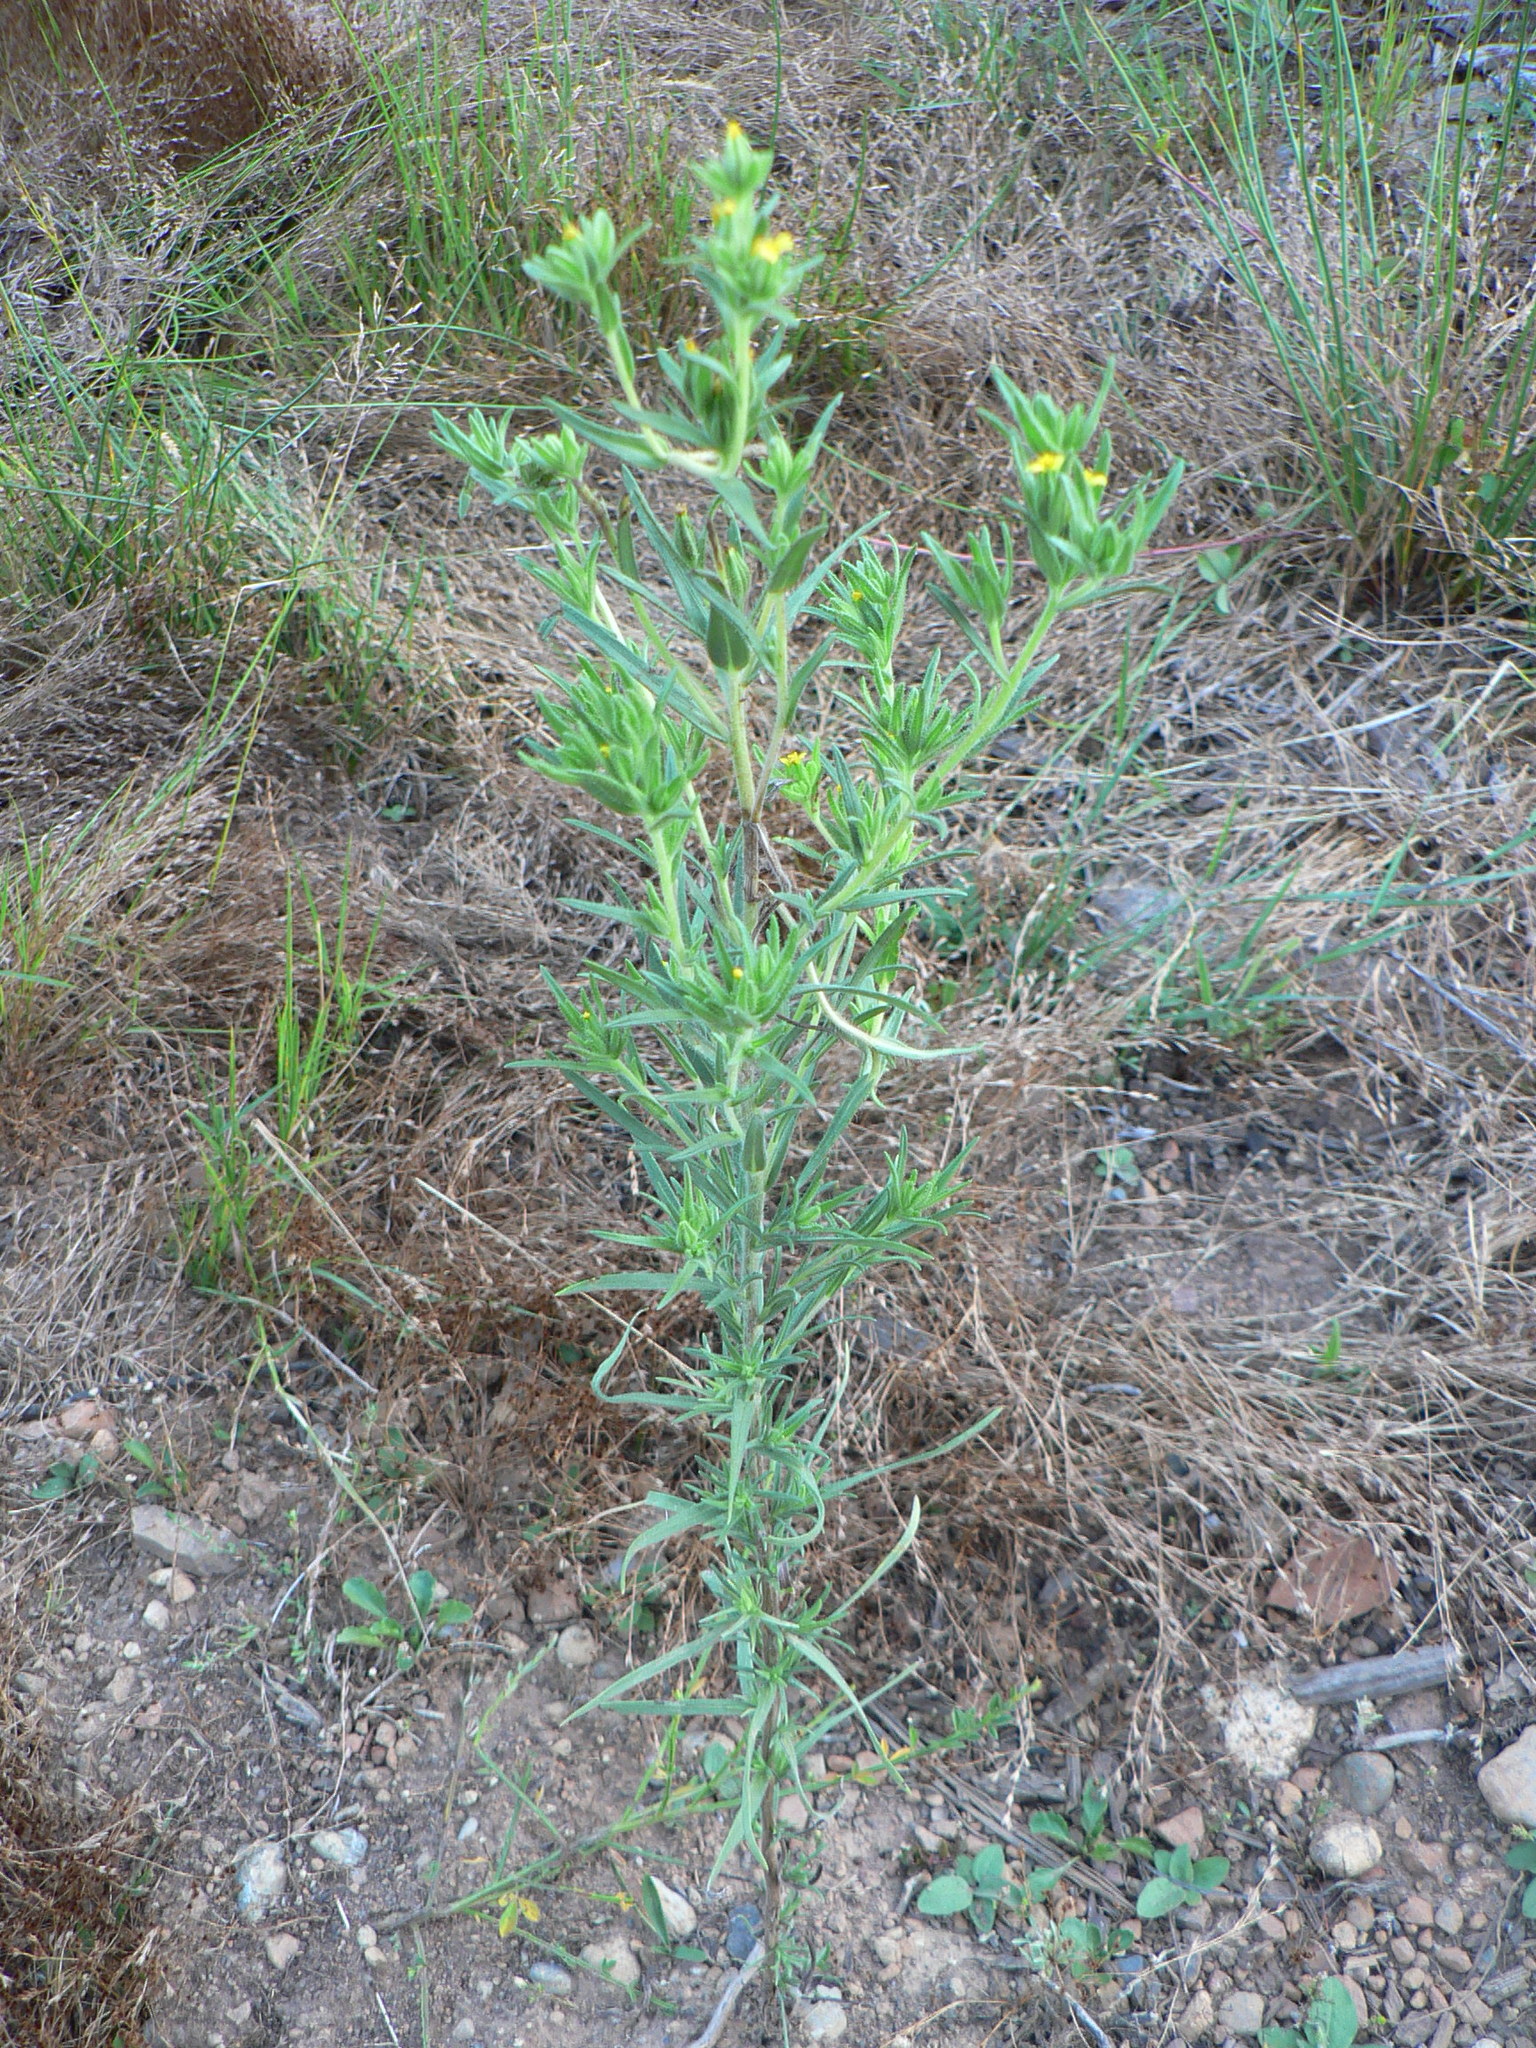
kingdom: Plantae
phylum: Tracheophyta
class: Magnoliopsida
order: Asterales
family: Asteraceae
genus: Madia
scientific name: Madia glomerata
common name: Mountain tarweed
